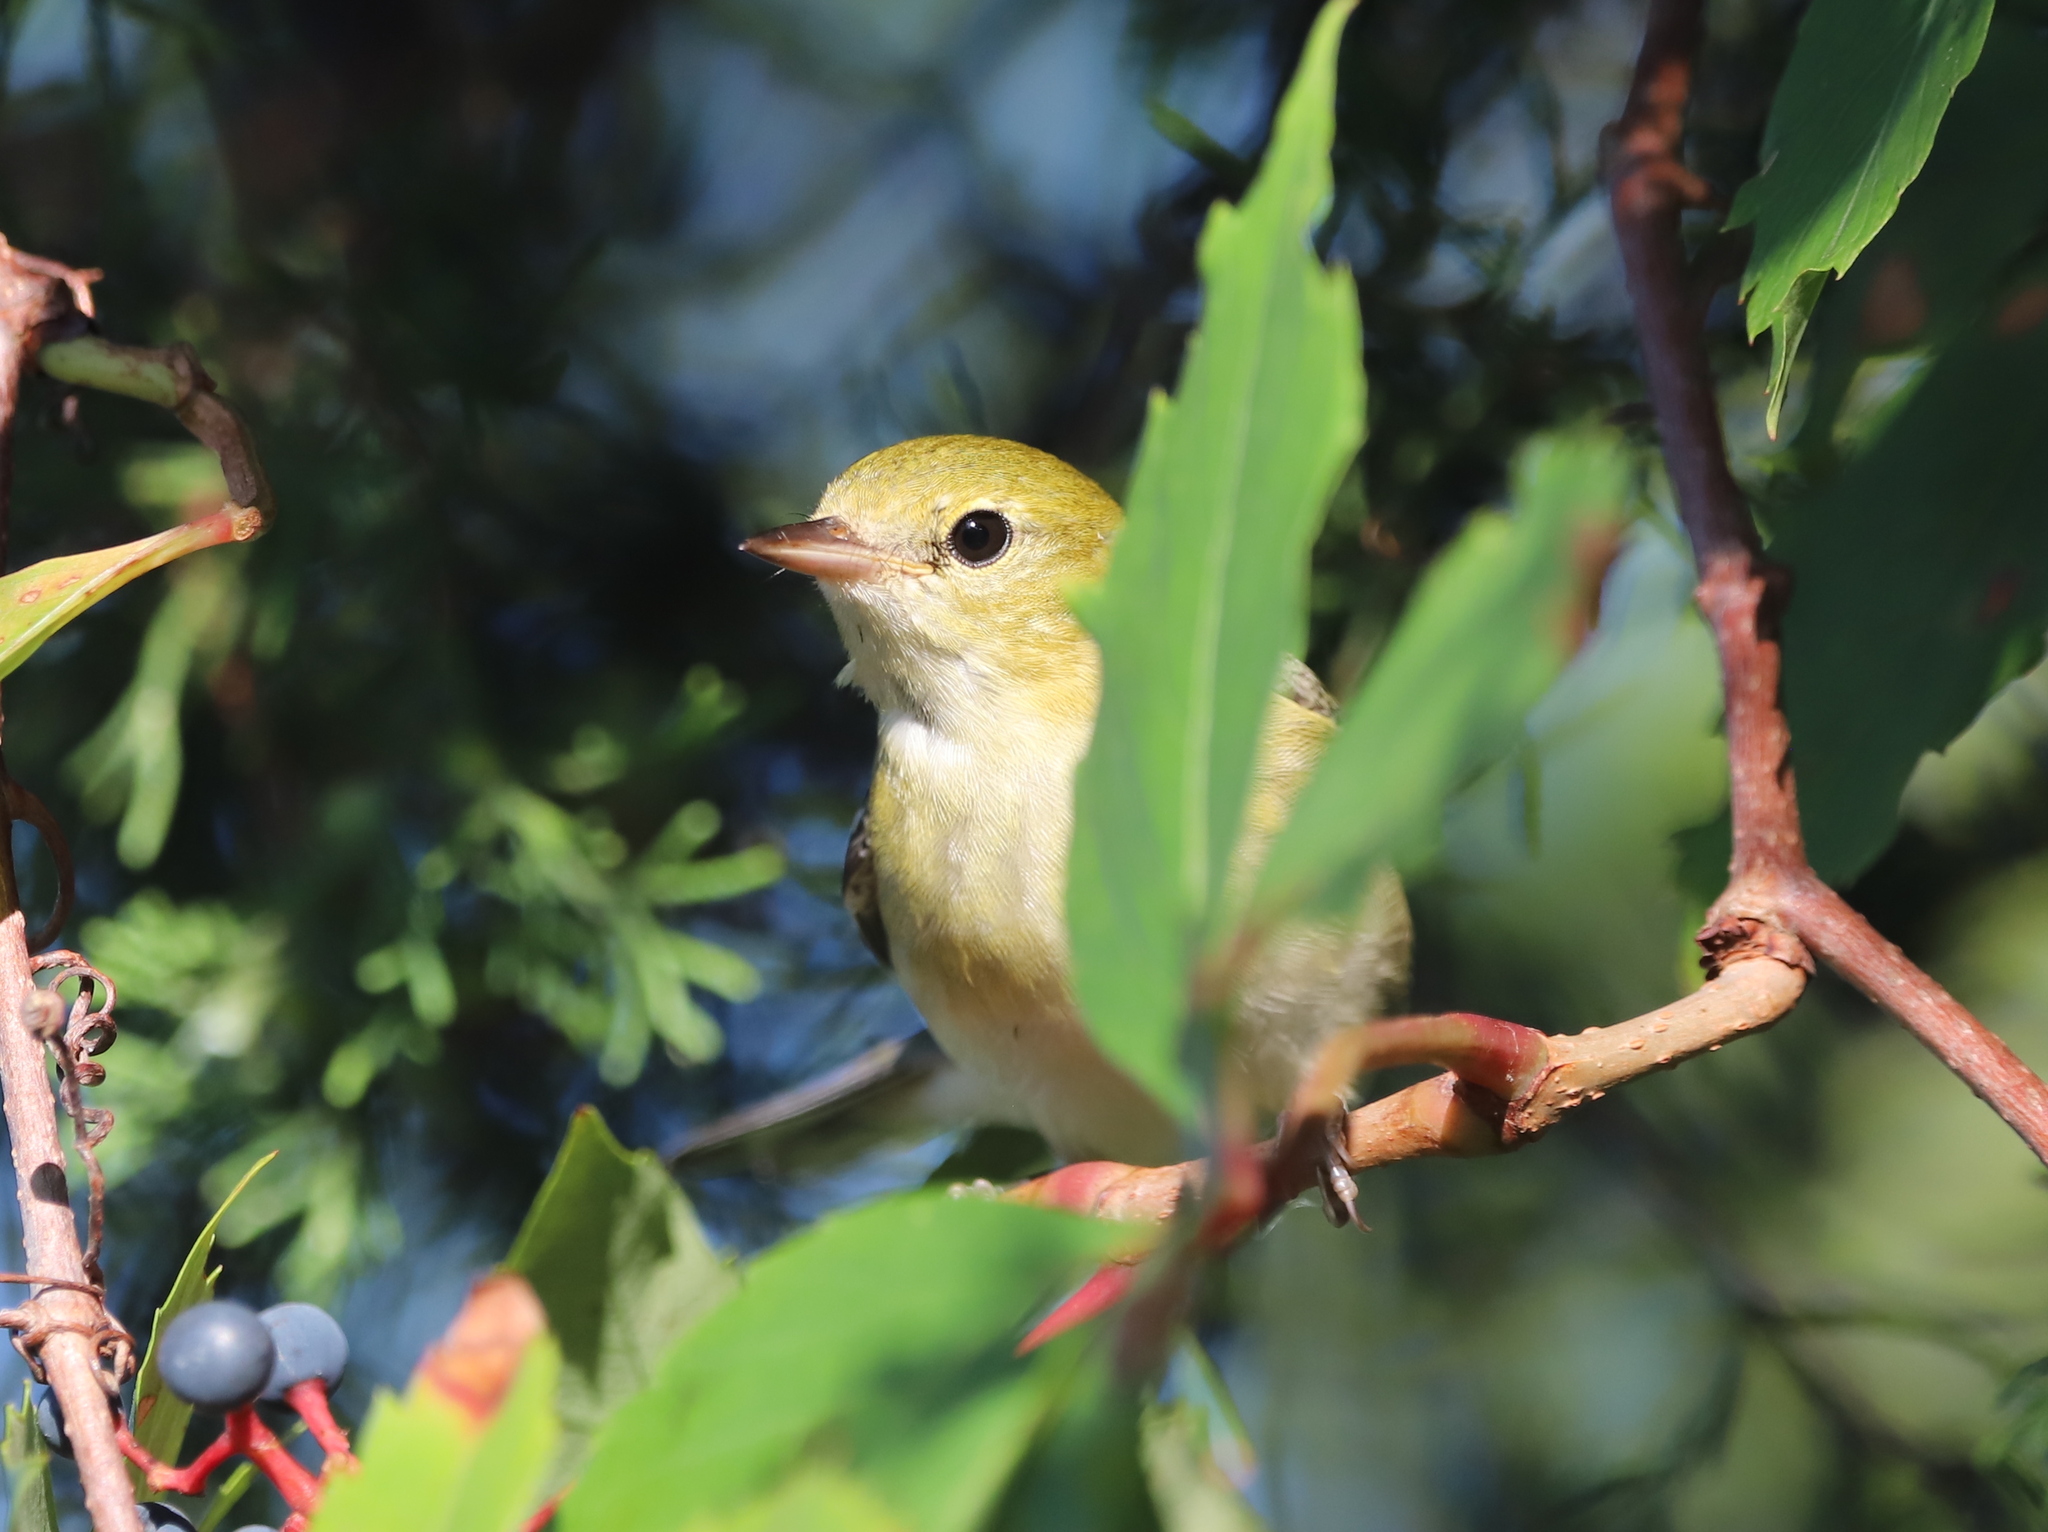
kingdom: Animalia
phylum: Chordata
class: Aves
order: Passeriformes
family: Parulidae
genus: Setophaga
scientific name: Setophaga castanea
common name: Bay-breasted warbler
